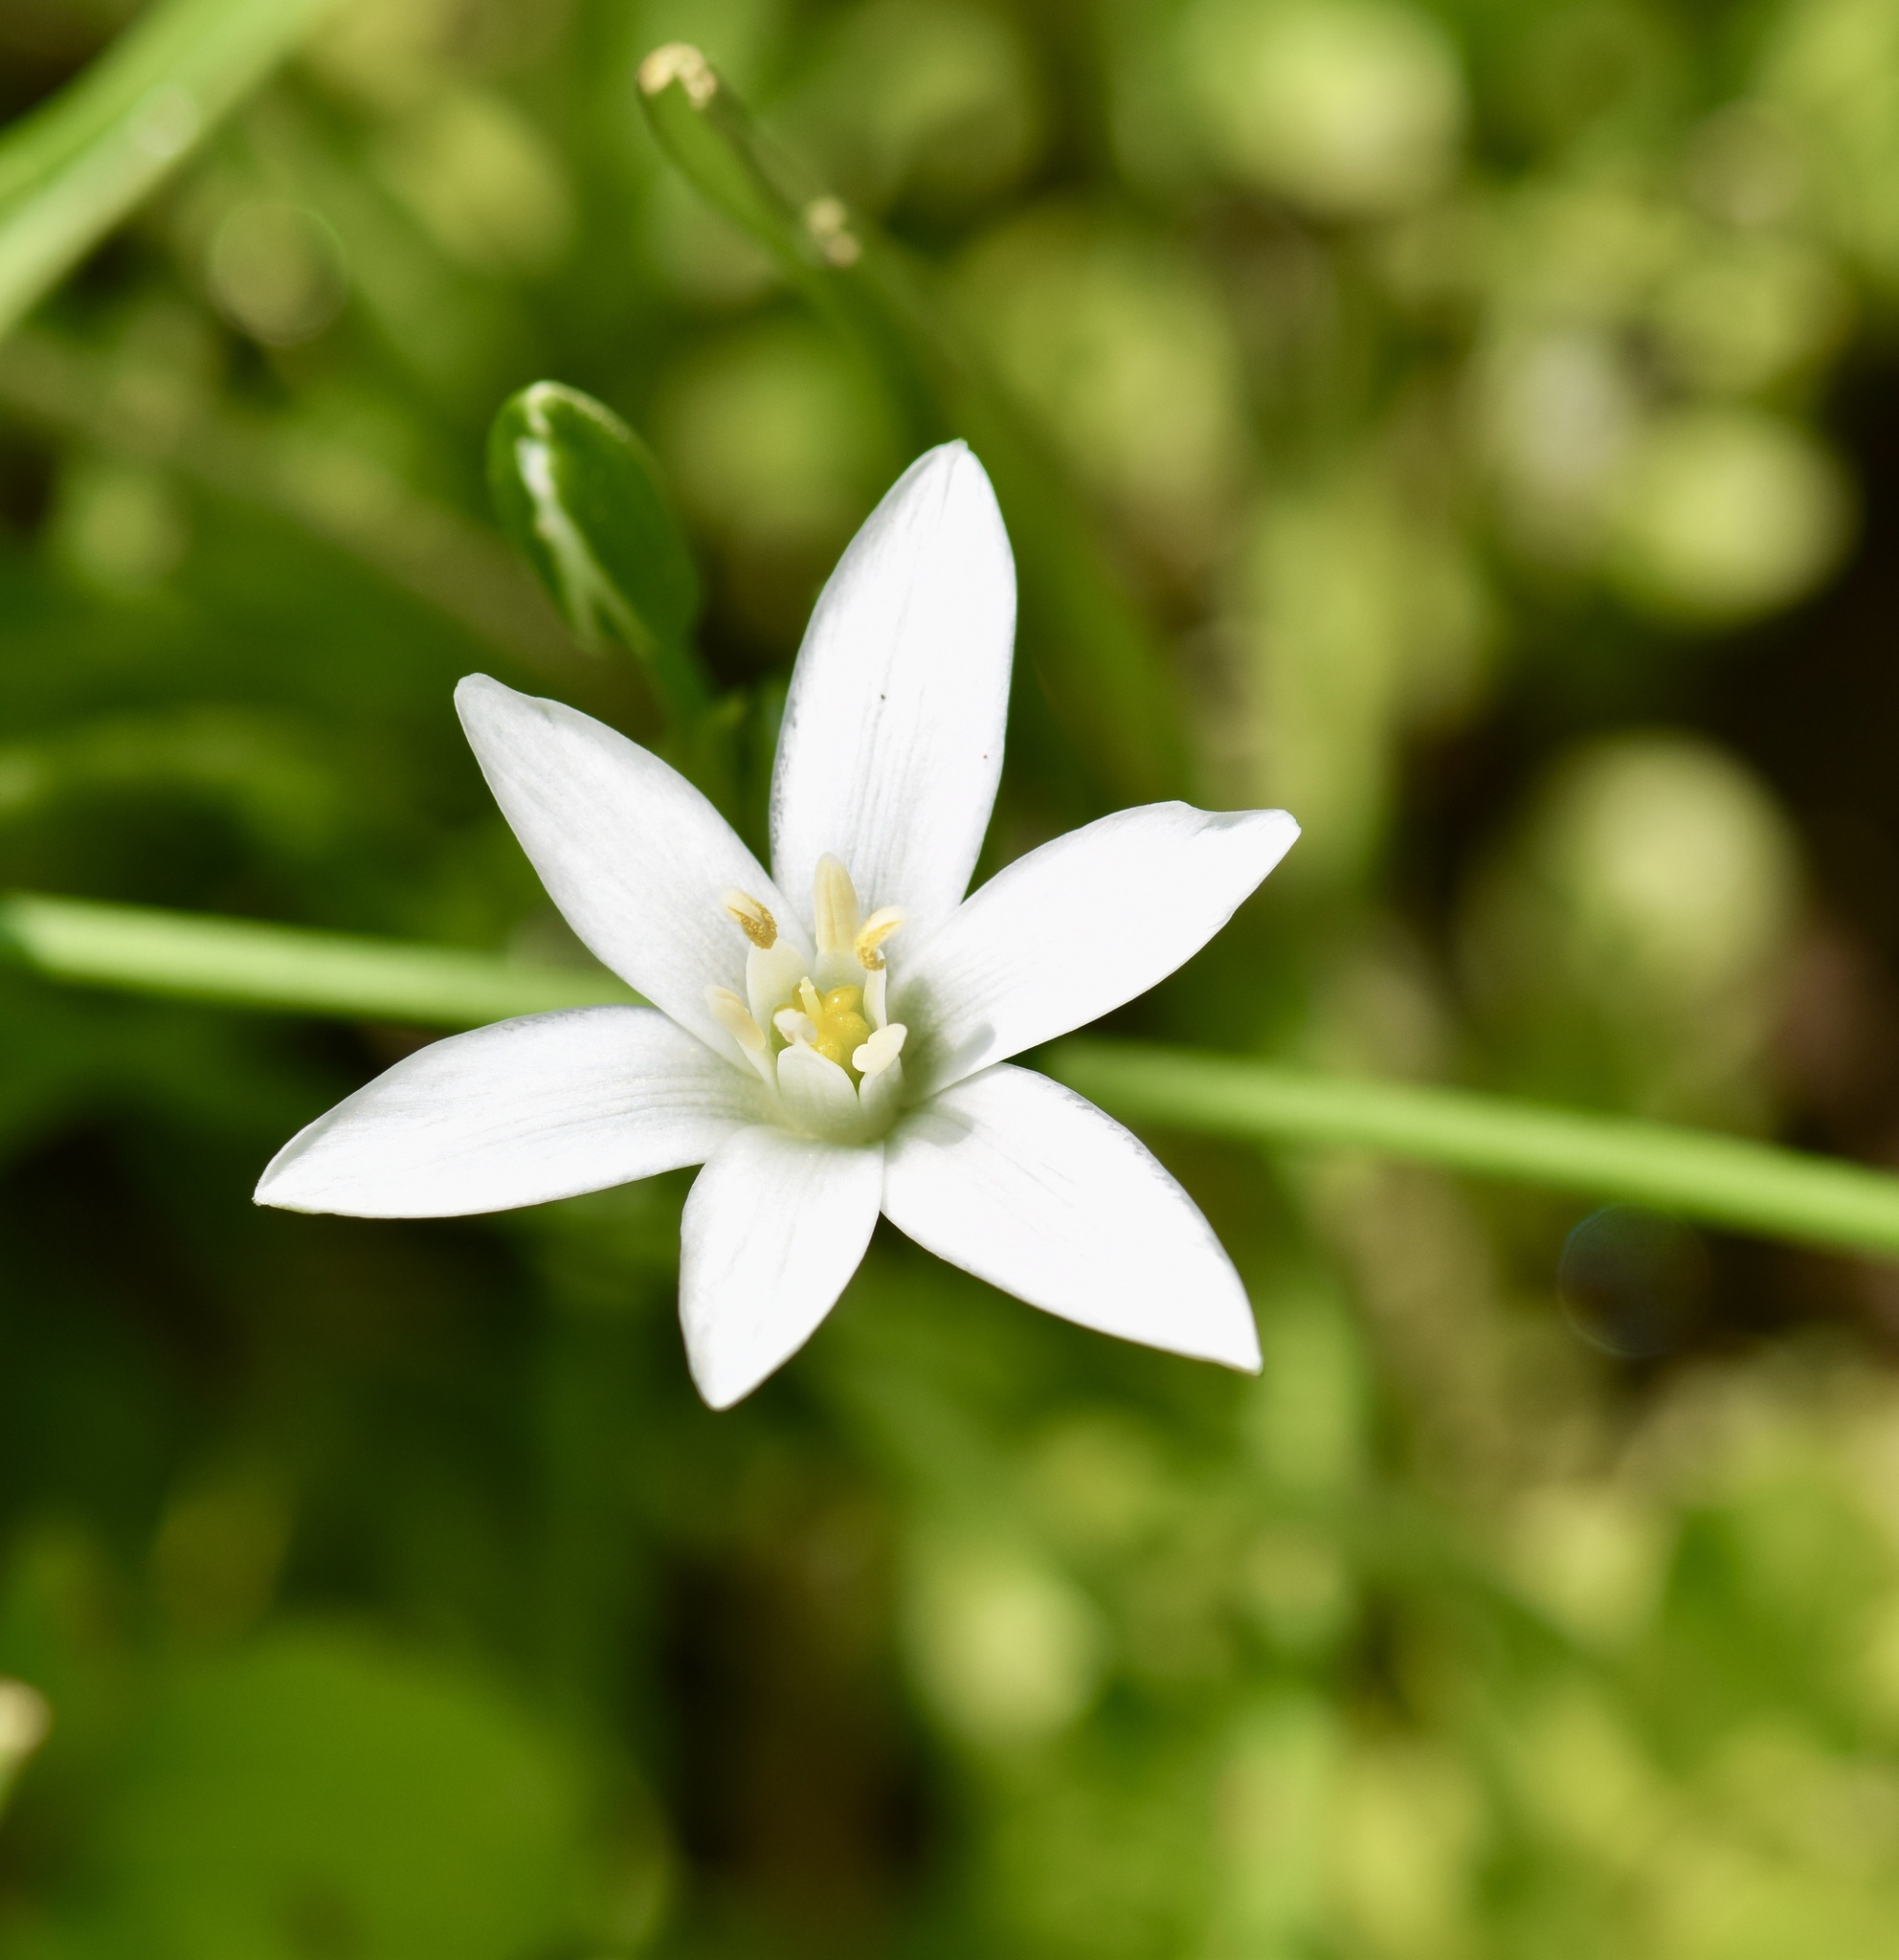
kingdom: Plantae
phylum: Tracheophyta
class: Liliopsida
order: Asparagales
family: Asparagaceae
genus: Ornithogalum
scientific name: Ornithogalum umbellatum
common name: Garden star-of-bethlehem
